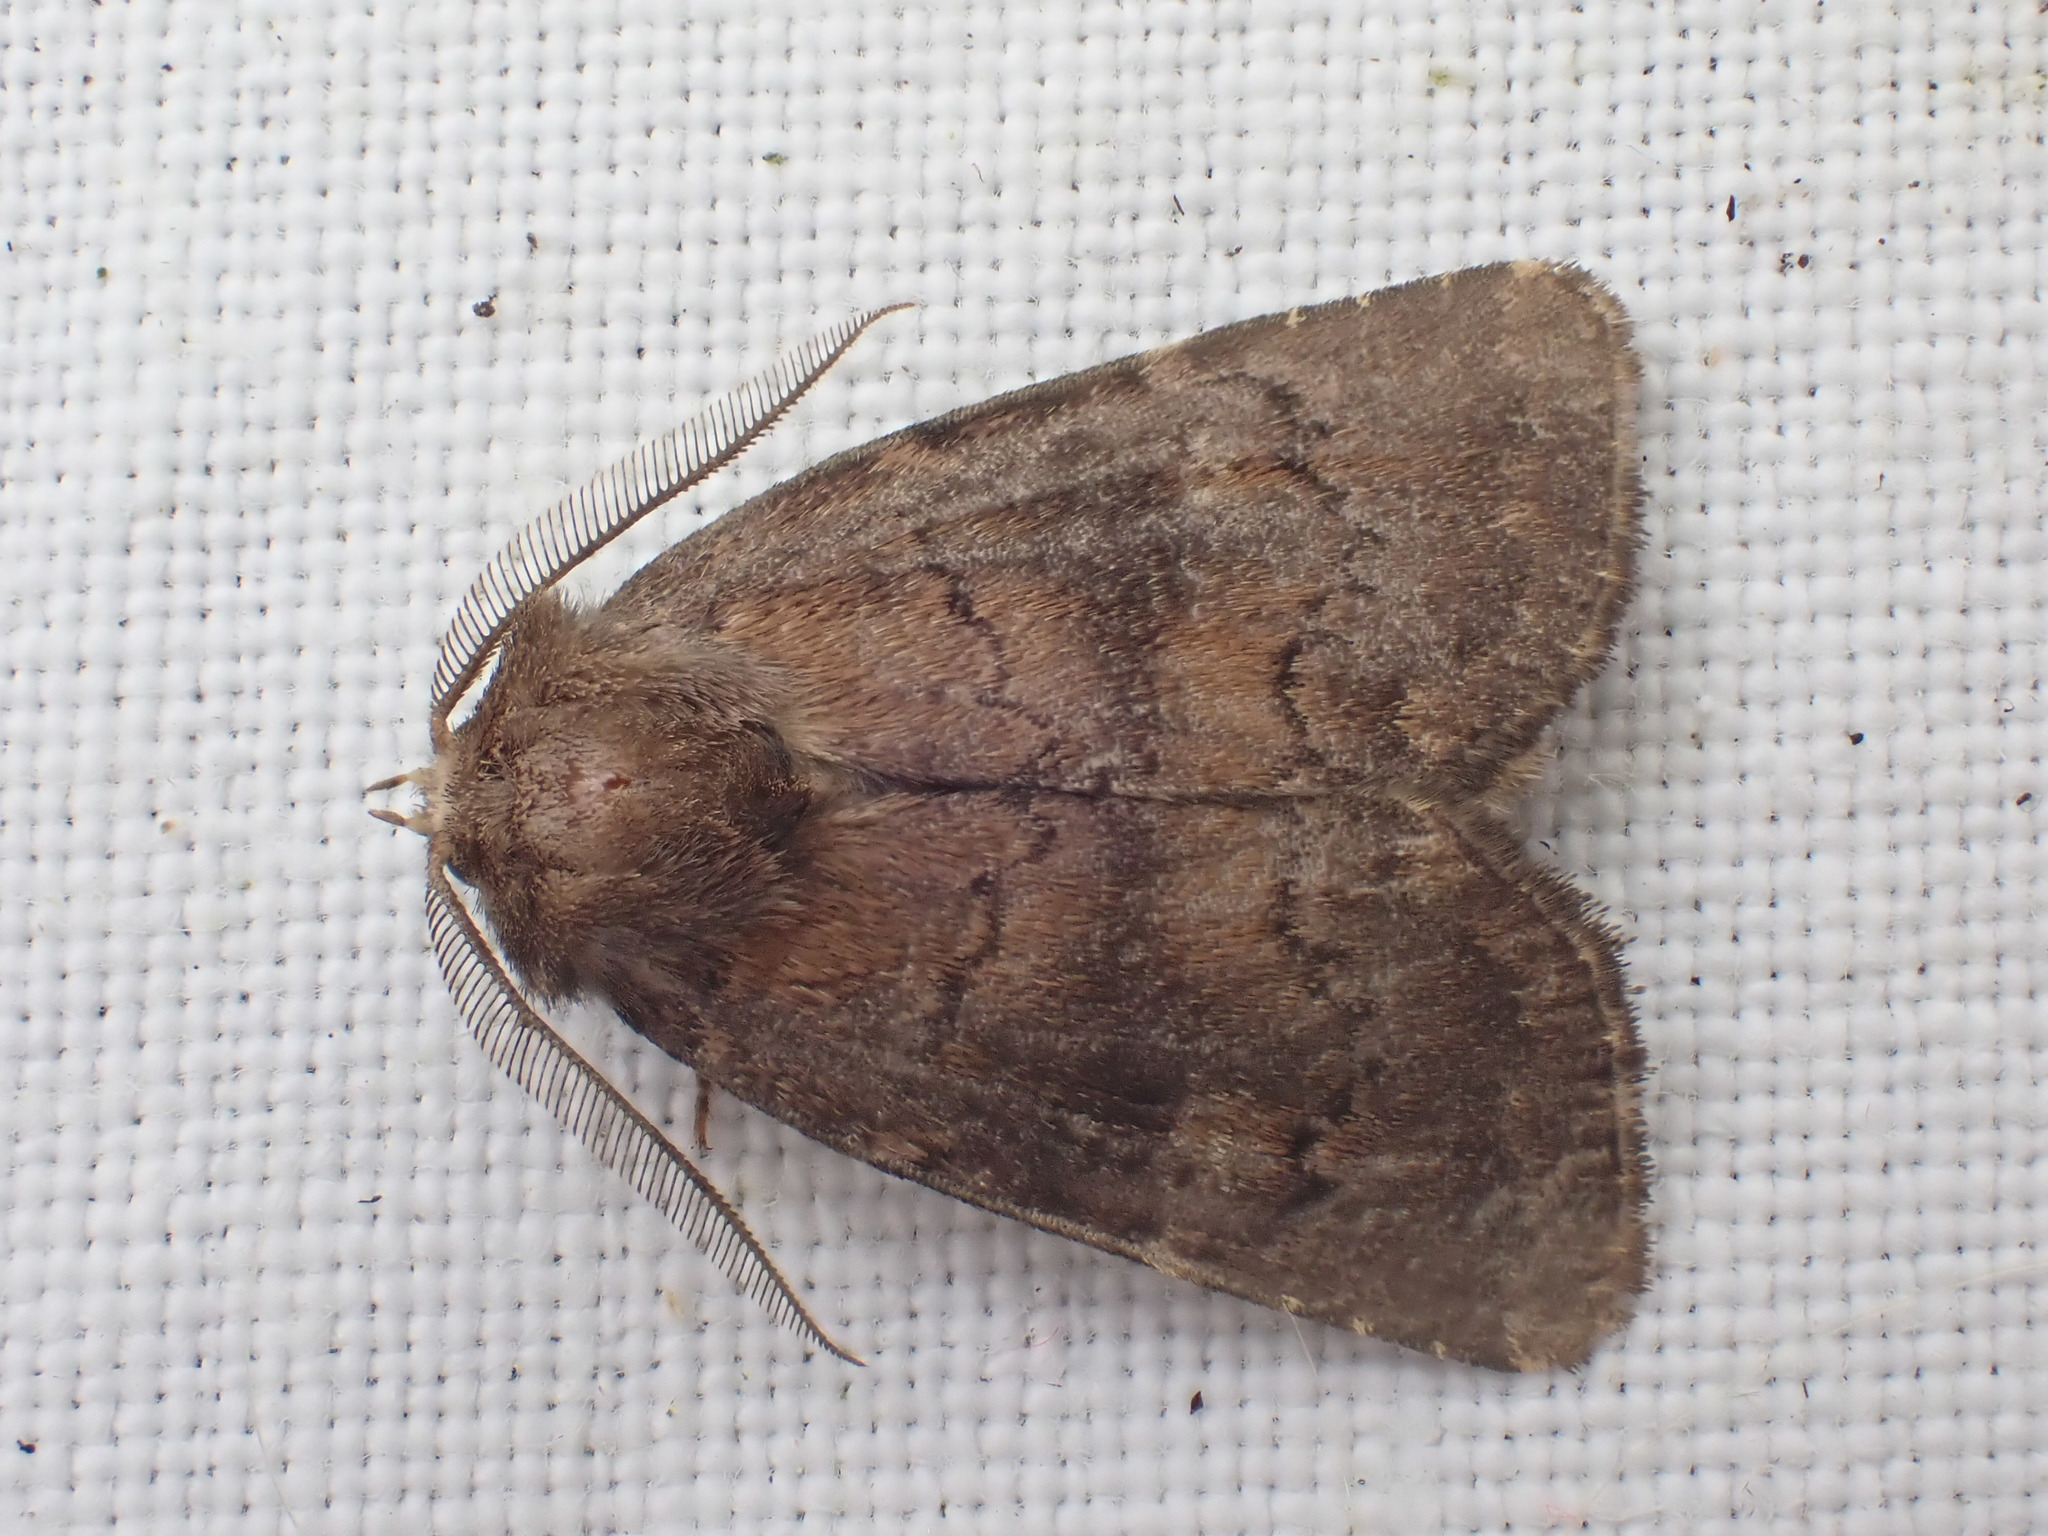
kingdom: Animalia
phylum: Arthropoda
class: Insecta
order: Lepidoptera
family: Noctuidae
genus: Charanyca
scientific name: Charanyca ferruginea
